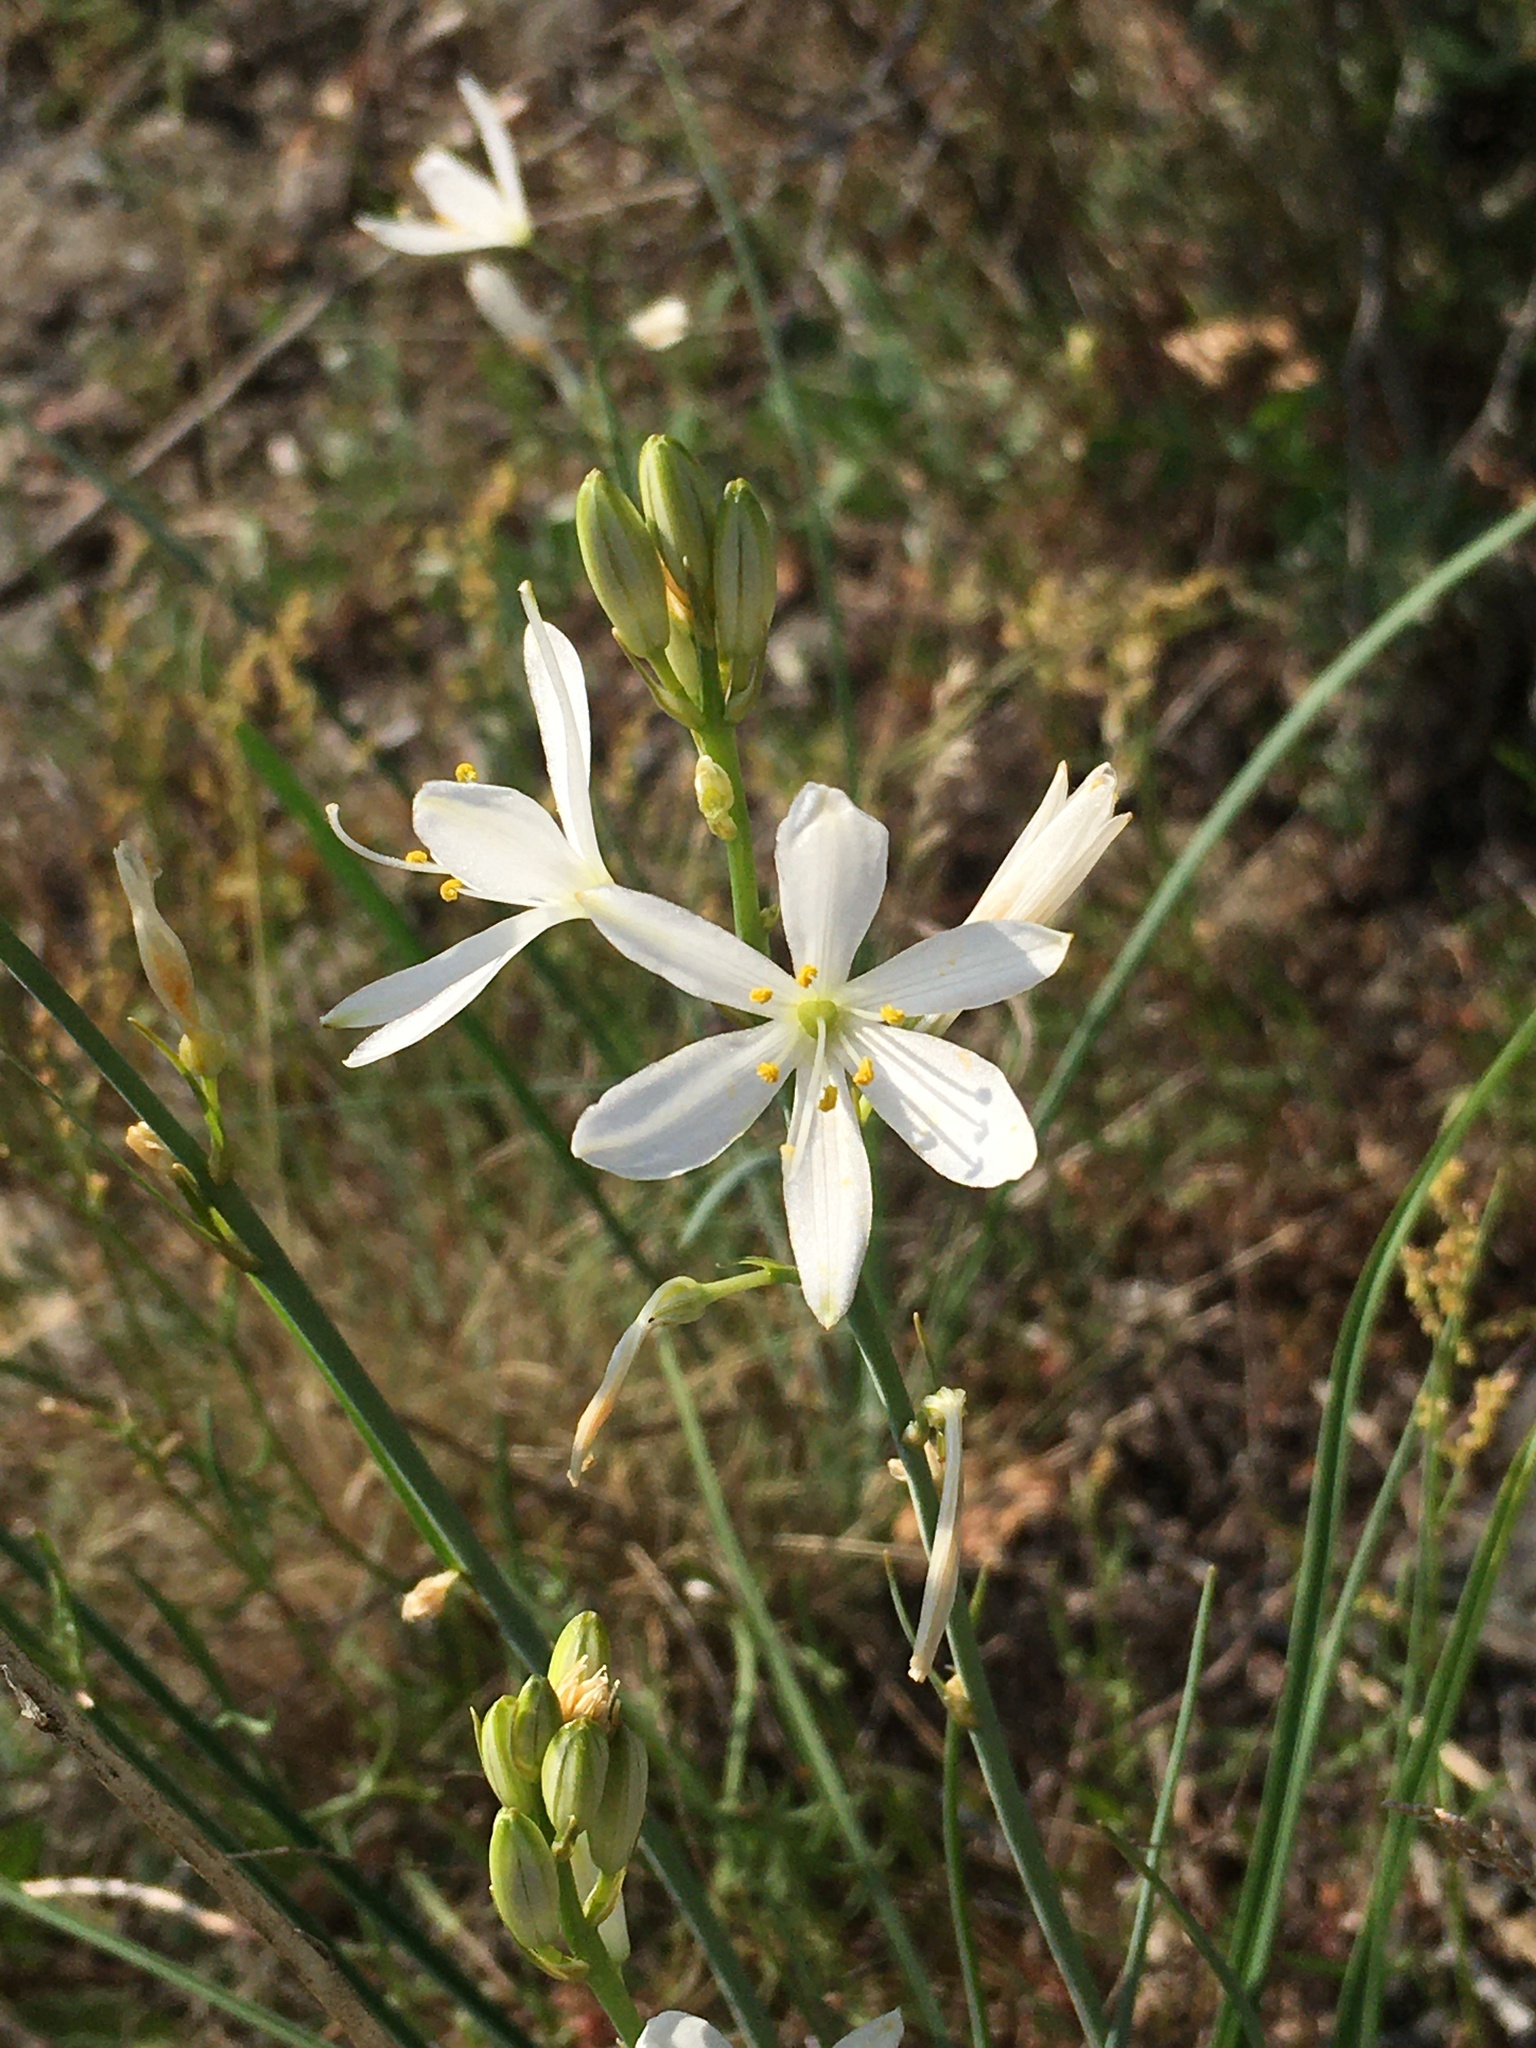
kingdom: Plantae
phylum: Tracheophyta
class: Liliopsida
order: Asparagales
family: Asparagaceae
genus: Anthericum
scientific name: Anthericum liliago
